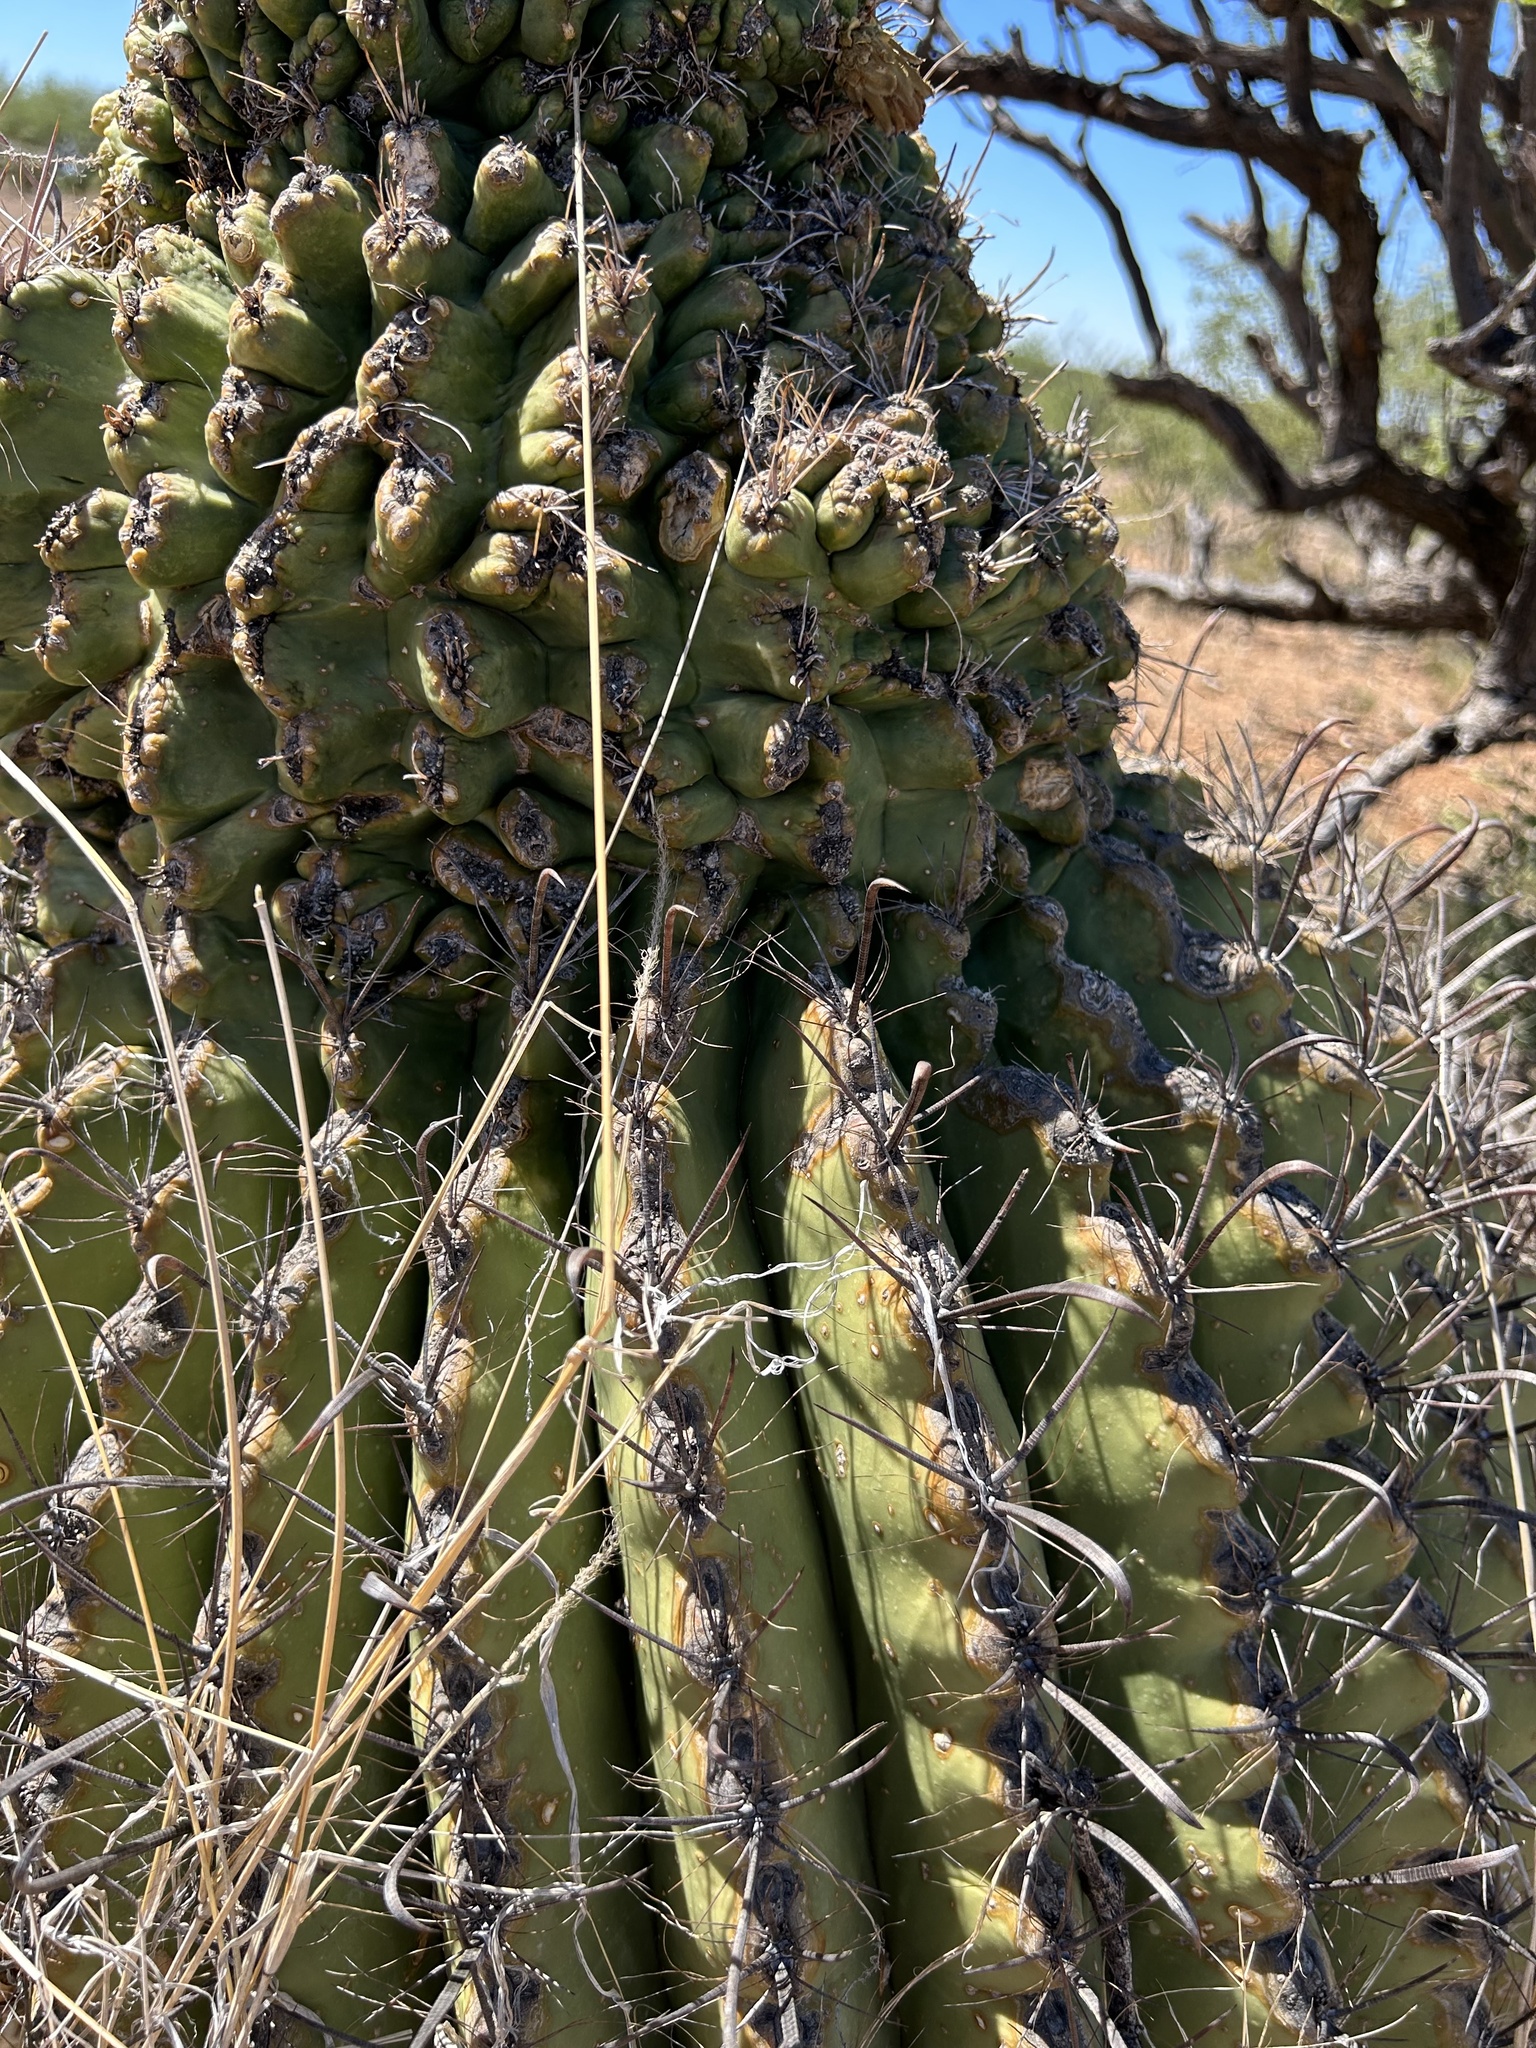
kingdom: Plantae
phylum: Tracheophyta
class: Magnoliopsida
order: Caryophyllales
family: Cactaceae
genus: Ferocactus
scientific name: Ferocactus wislizeni
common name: Candy barrel cactus
